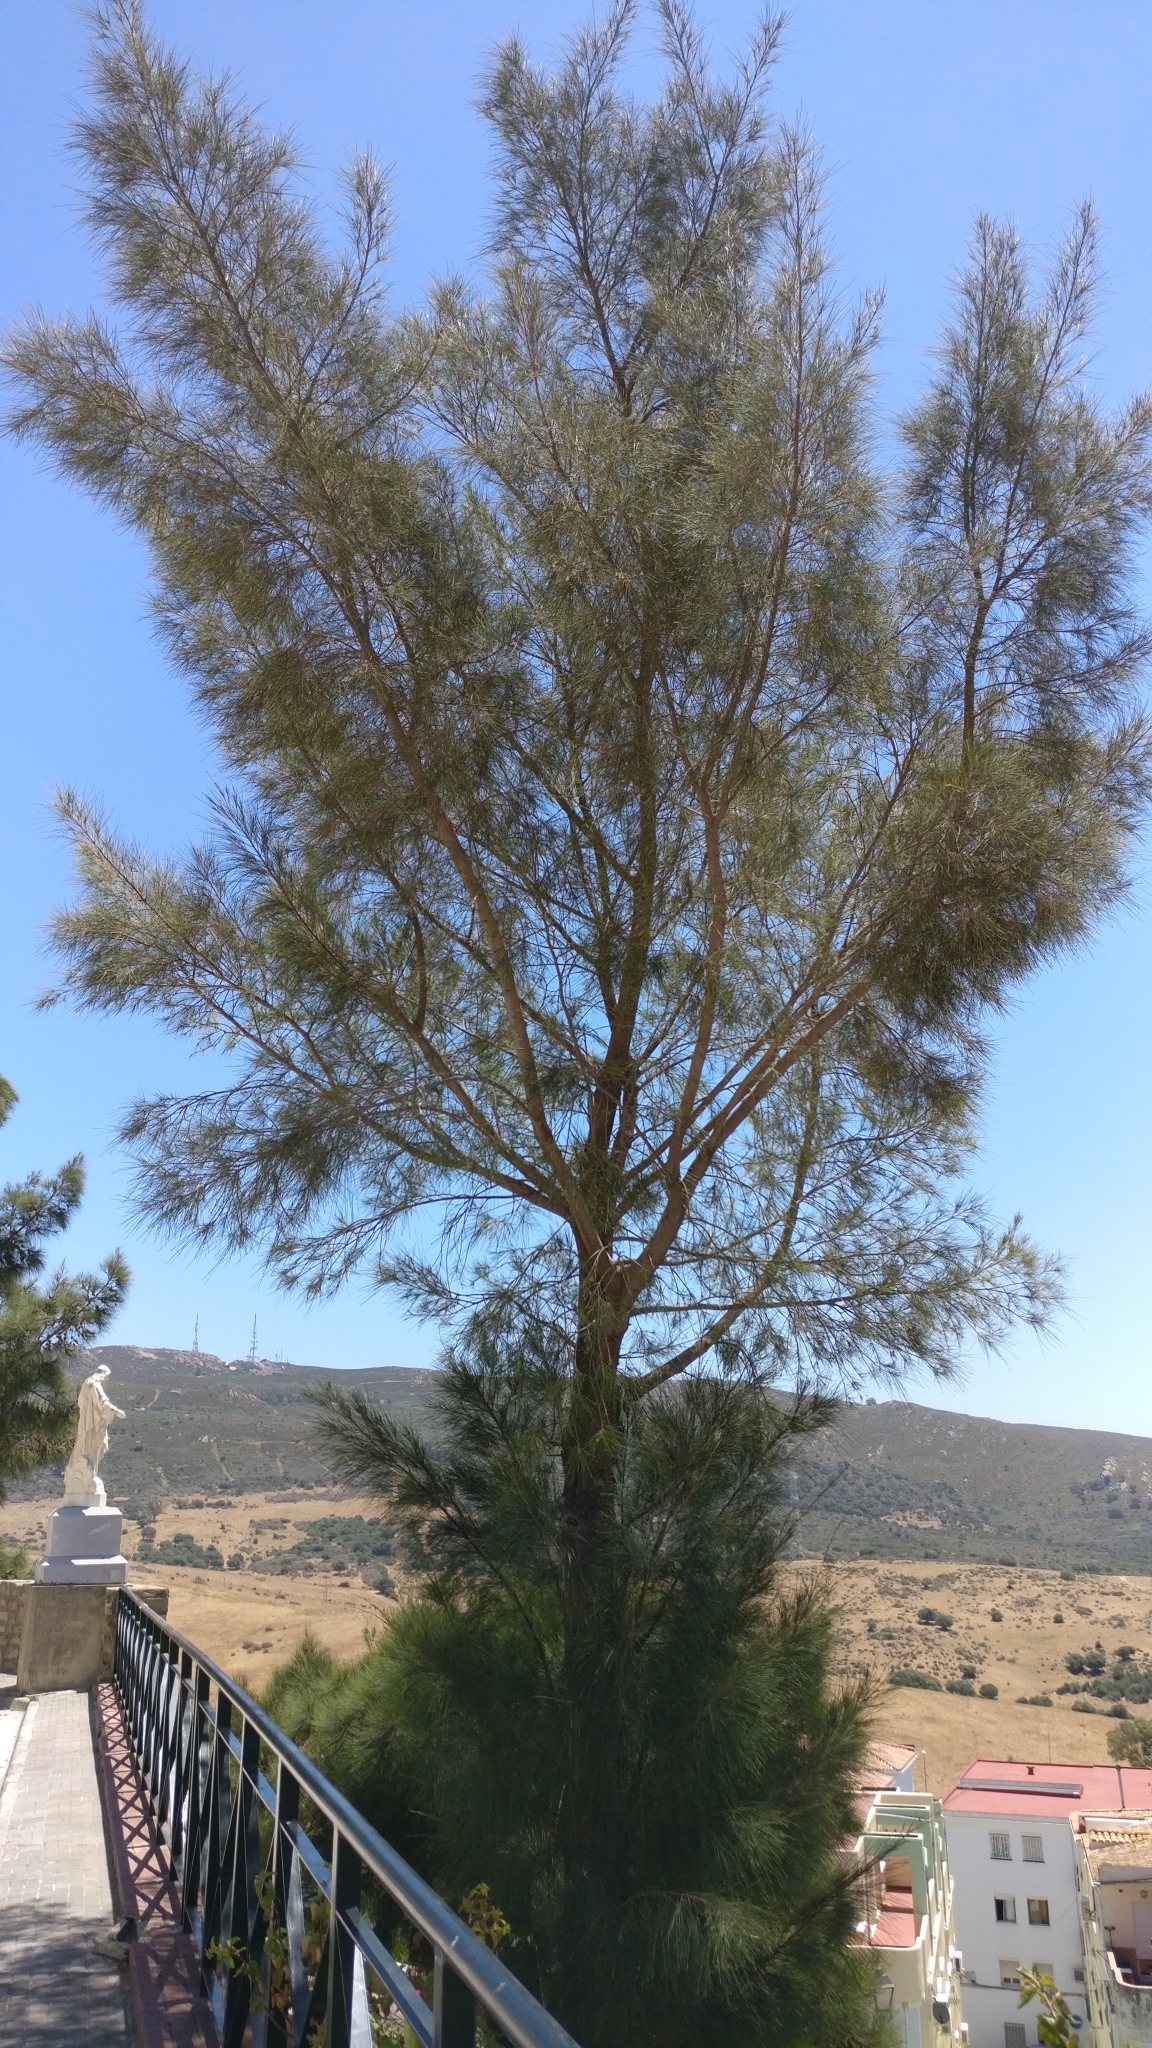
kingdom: Plantae
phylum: Tracheophyta
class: Magnoliopsida
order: Fagales
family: Casuarinaceae
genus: Casuarina
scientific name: Casuarina equisetifolia
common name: Beach sheoak
